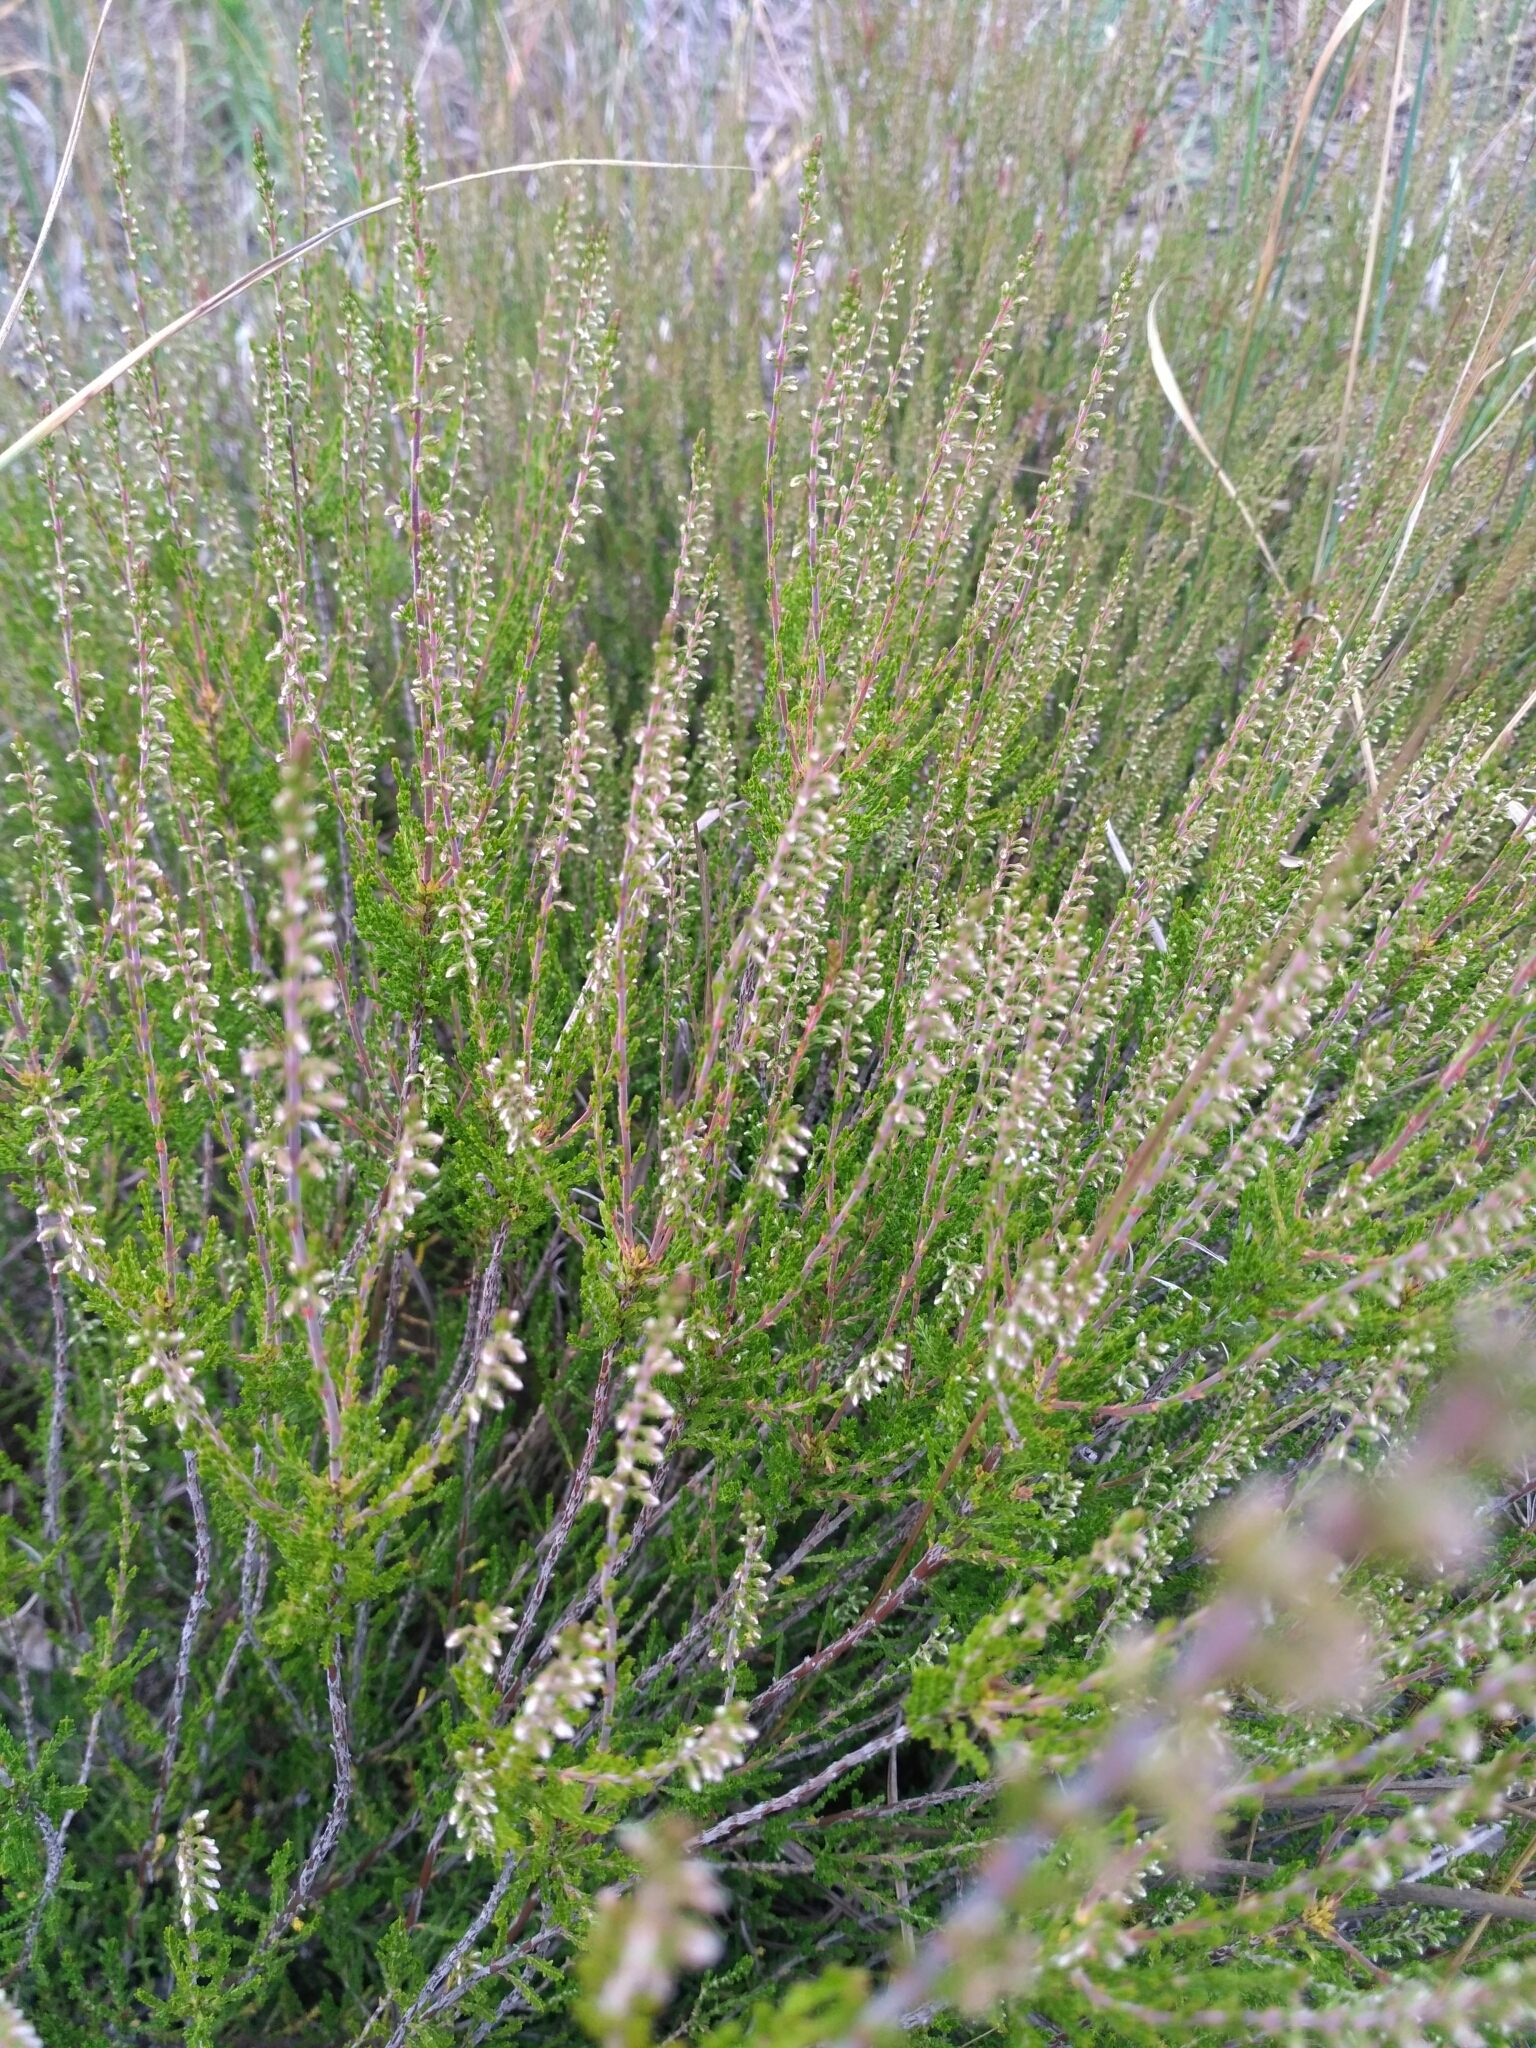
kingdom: Plantae
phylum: Tracheophyta
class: Magnoliopsida
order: Ericales
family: Ericaceae
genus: Calluna
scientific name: Calluna vulgaris
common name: Heather
